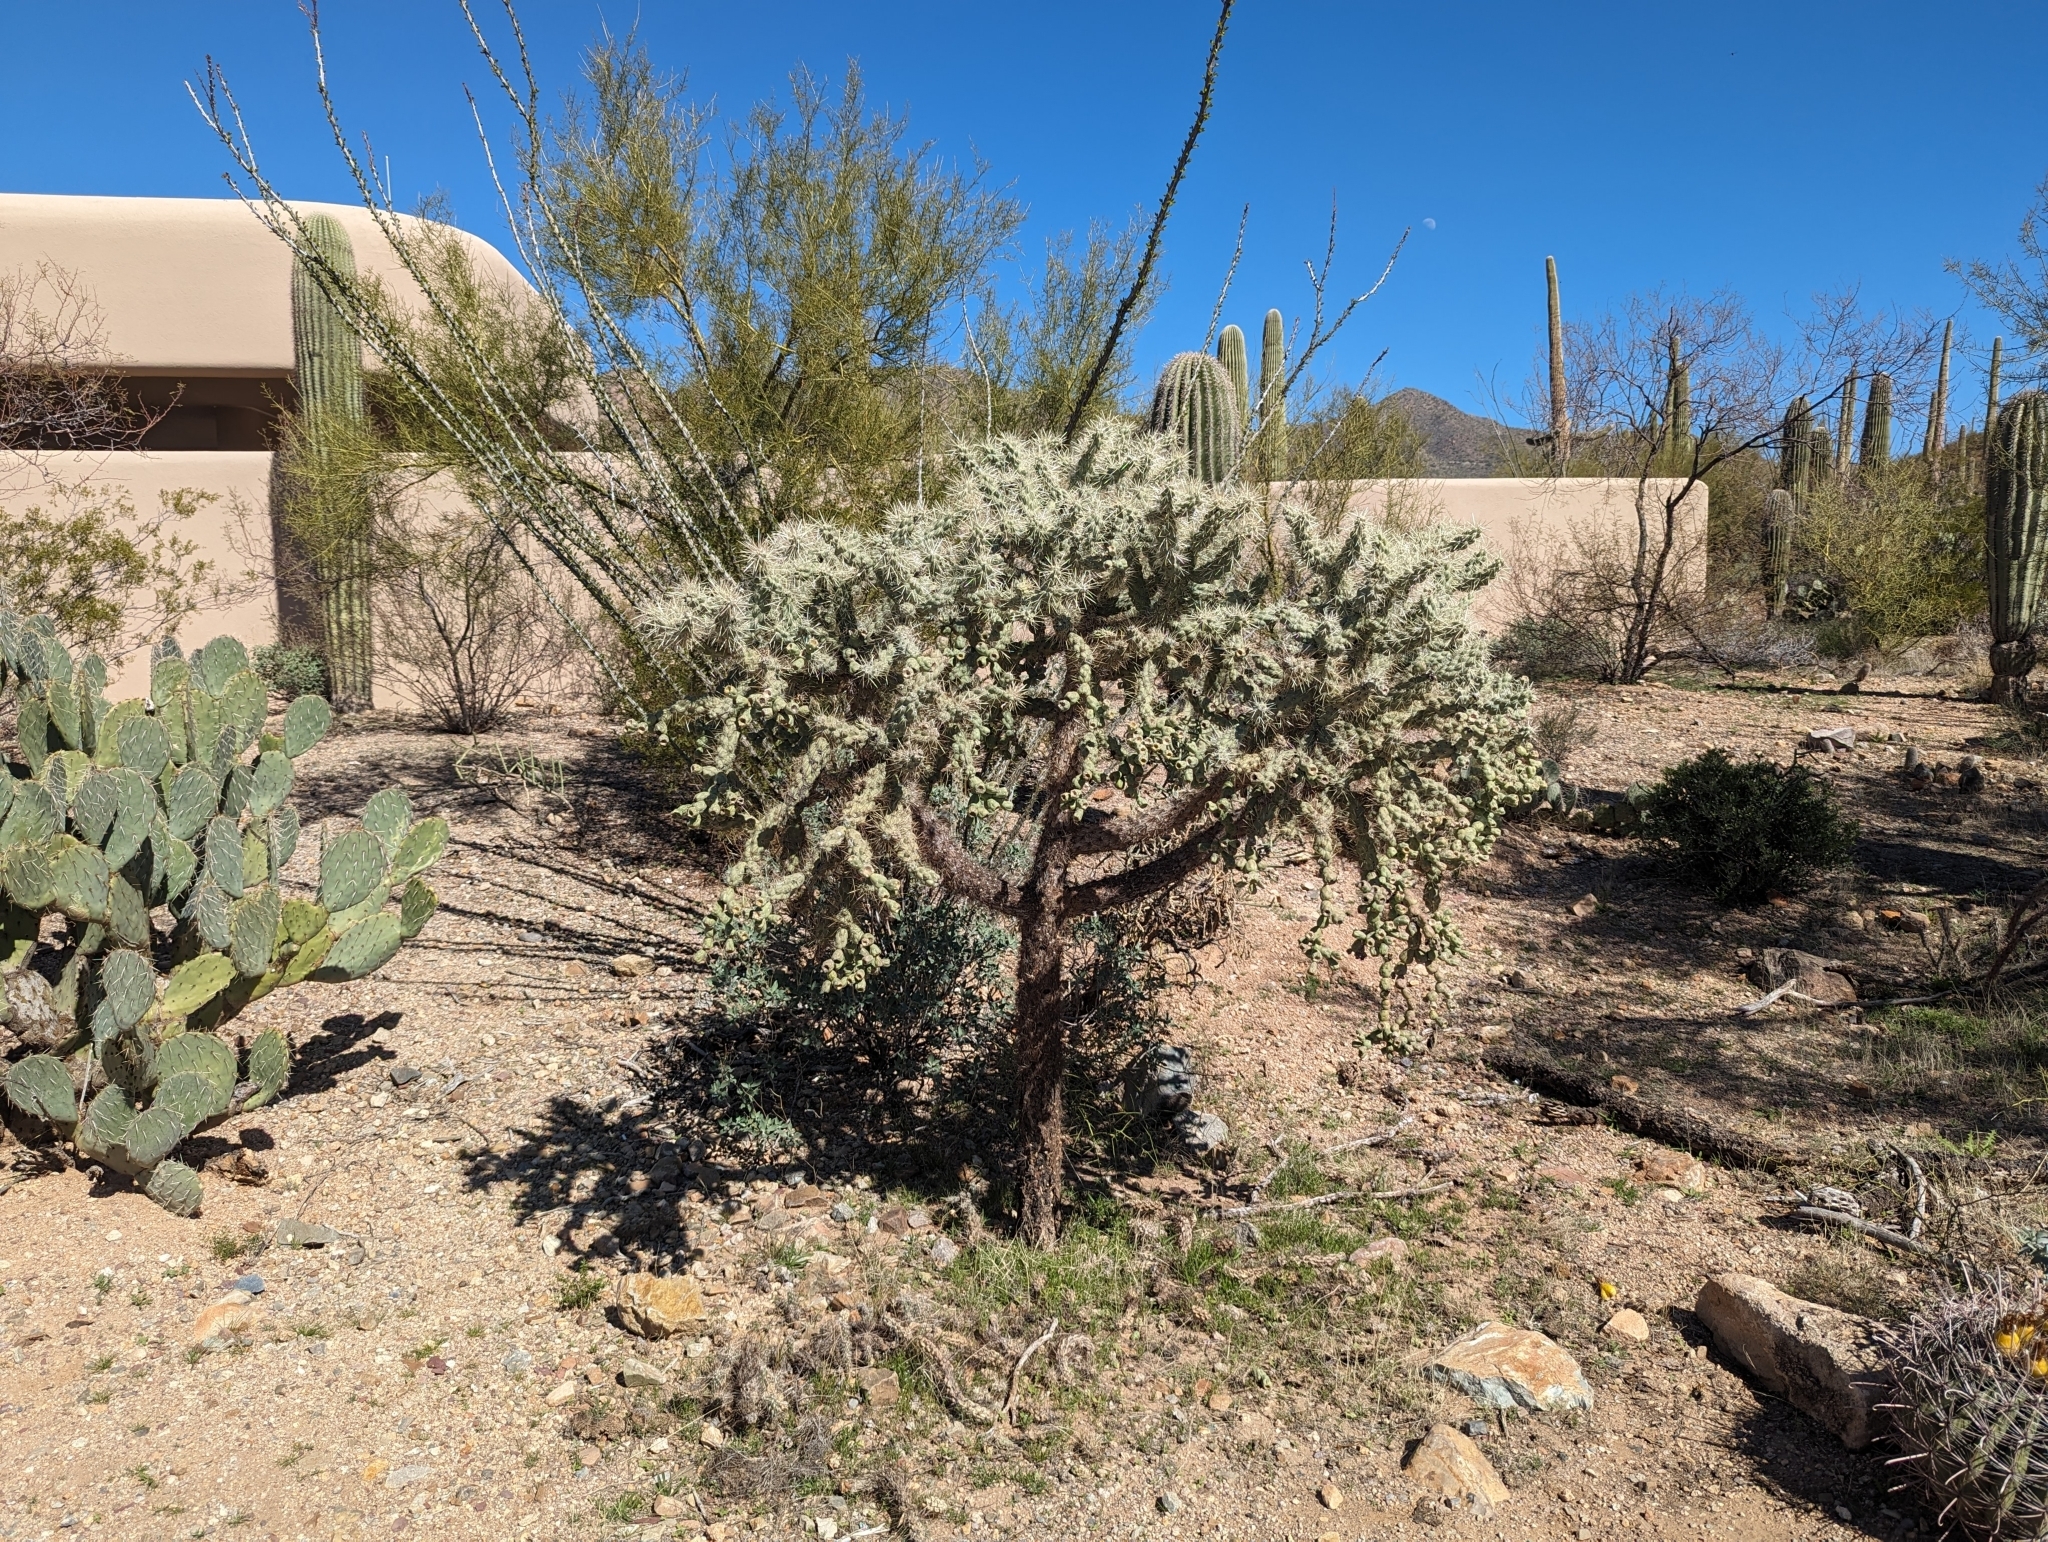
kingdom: Plantae
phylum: Tracheophyta
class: Magnoliopsida
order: Caryophyllales
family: Cactaceae
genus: Cylindropuntia
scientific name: Cylindropuntia fulgida
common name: Jumping cholla
